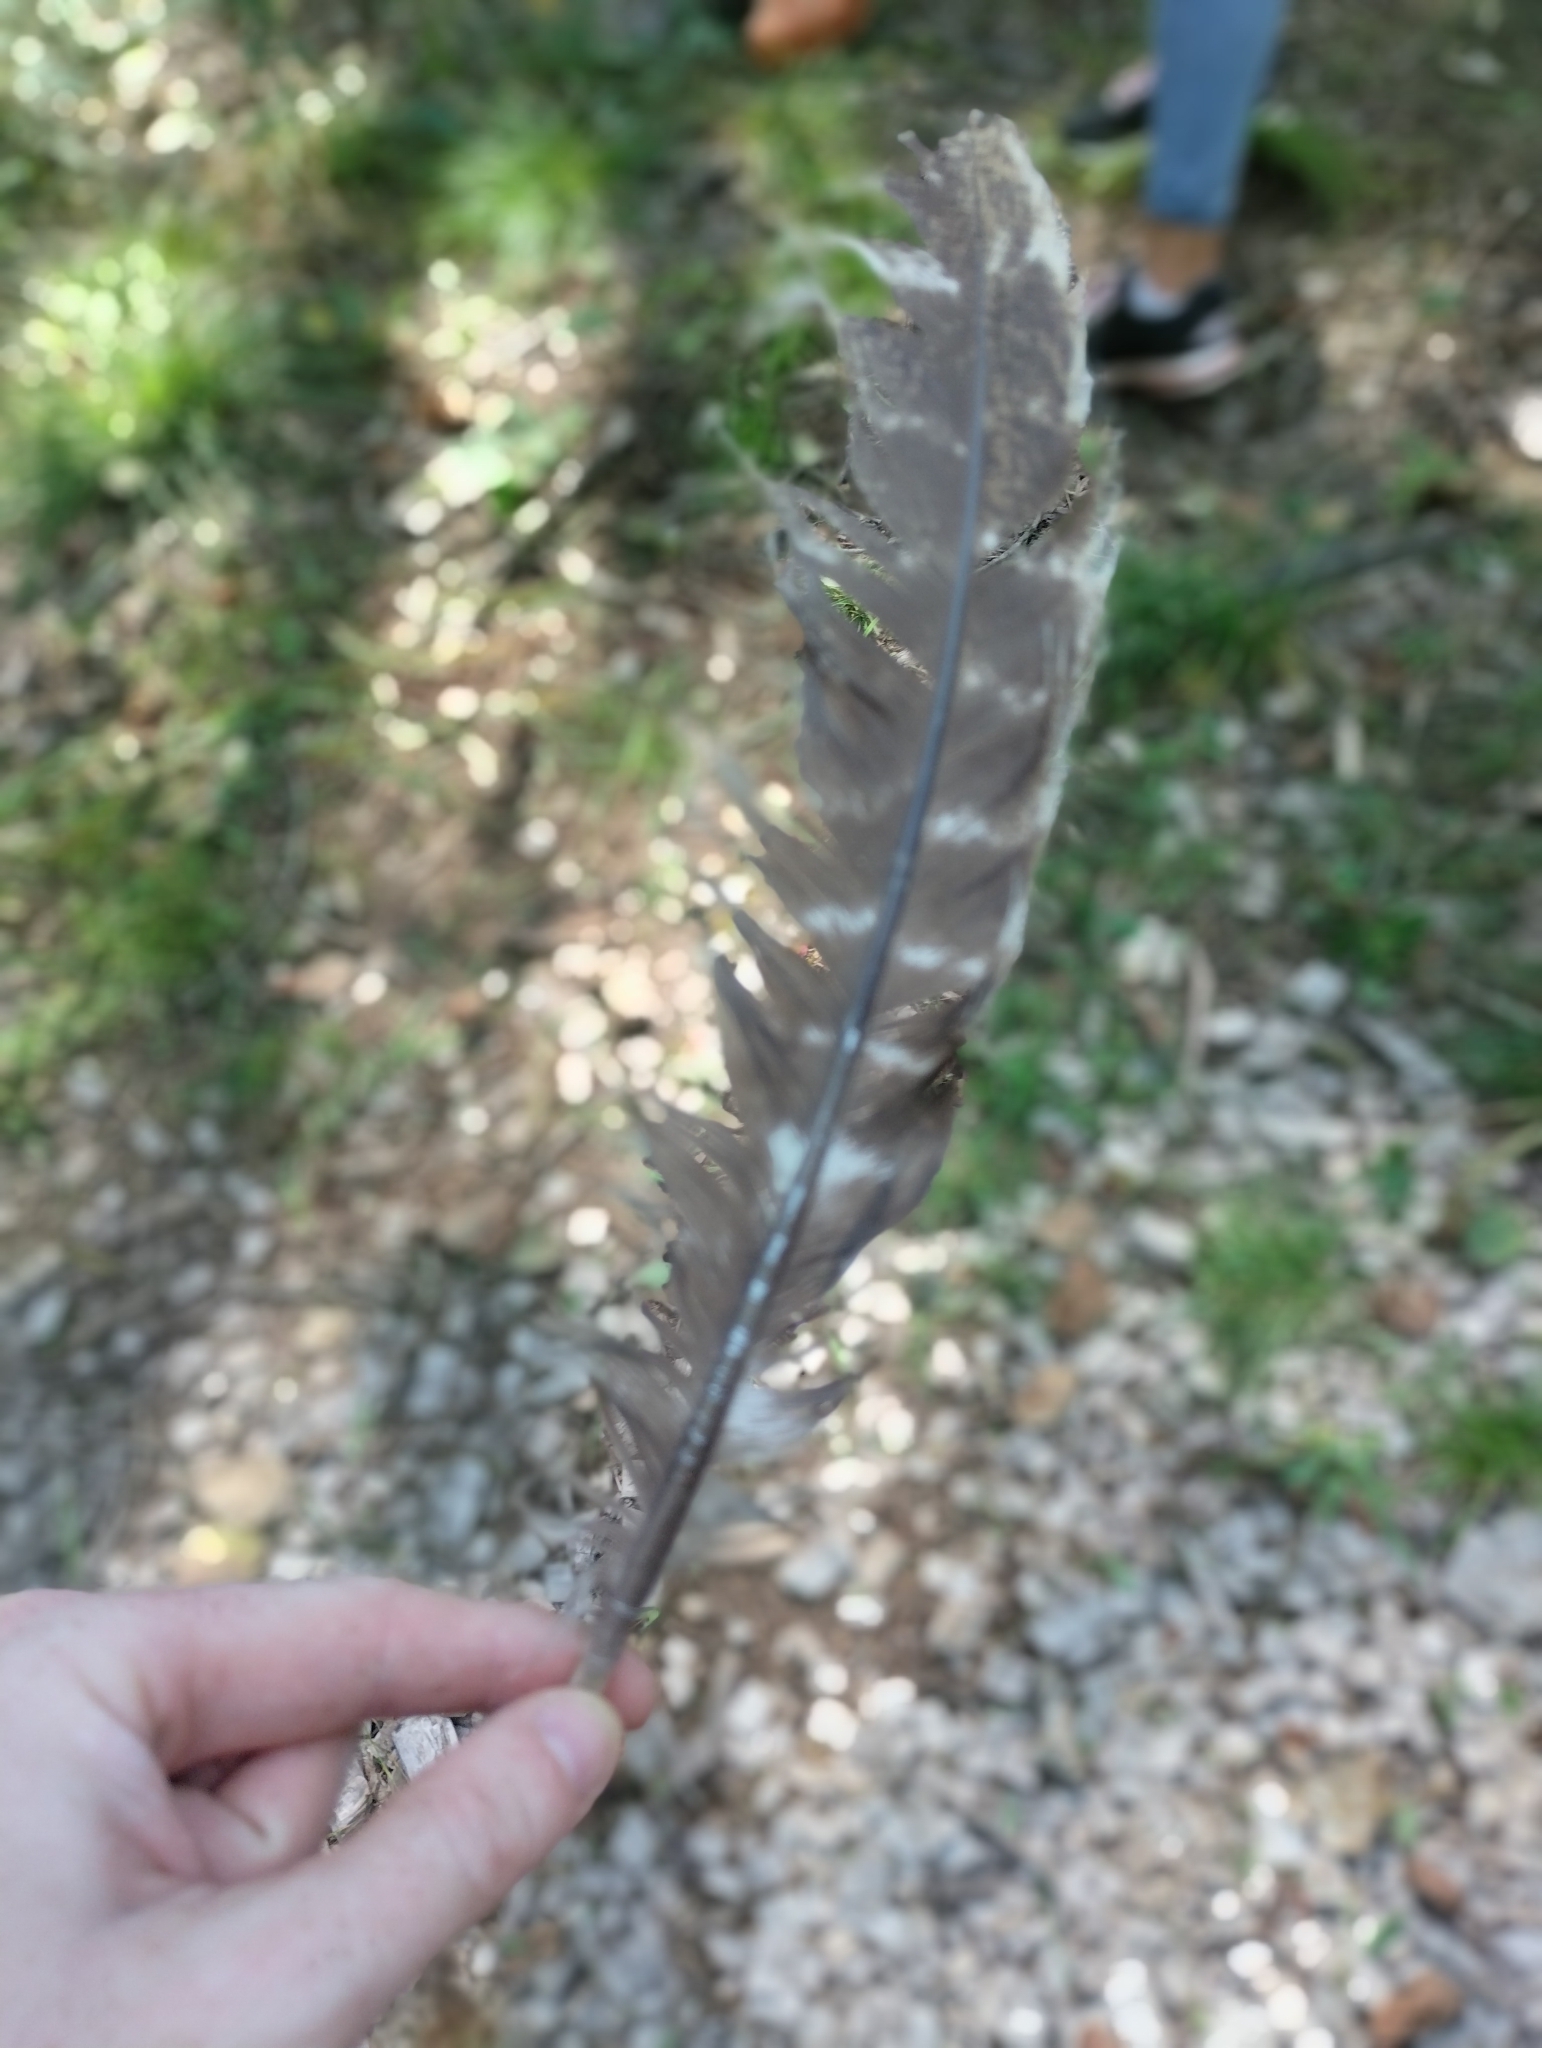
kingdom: Animalia
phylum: Chordata
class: Aves
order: Galliformes
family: Phasianidae
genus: Meleagris
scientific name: Meleagris gallopavo
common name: Wild turkey
